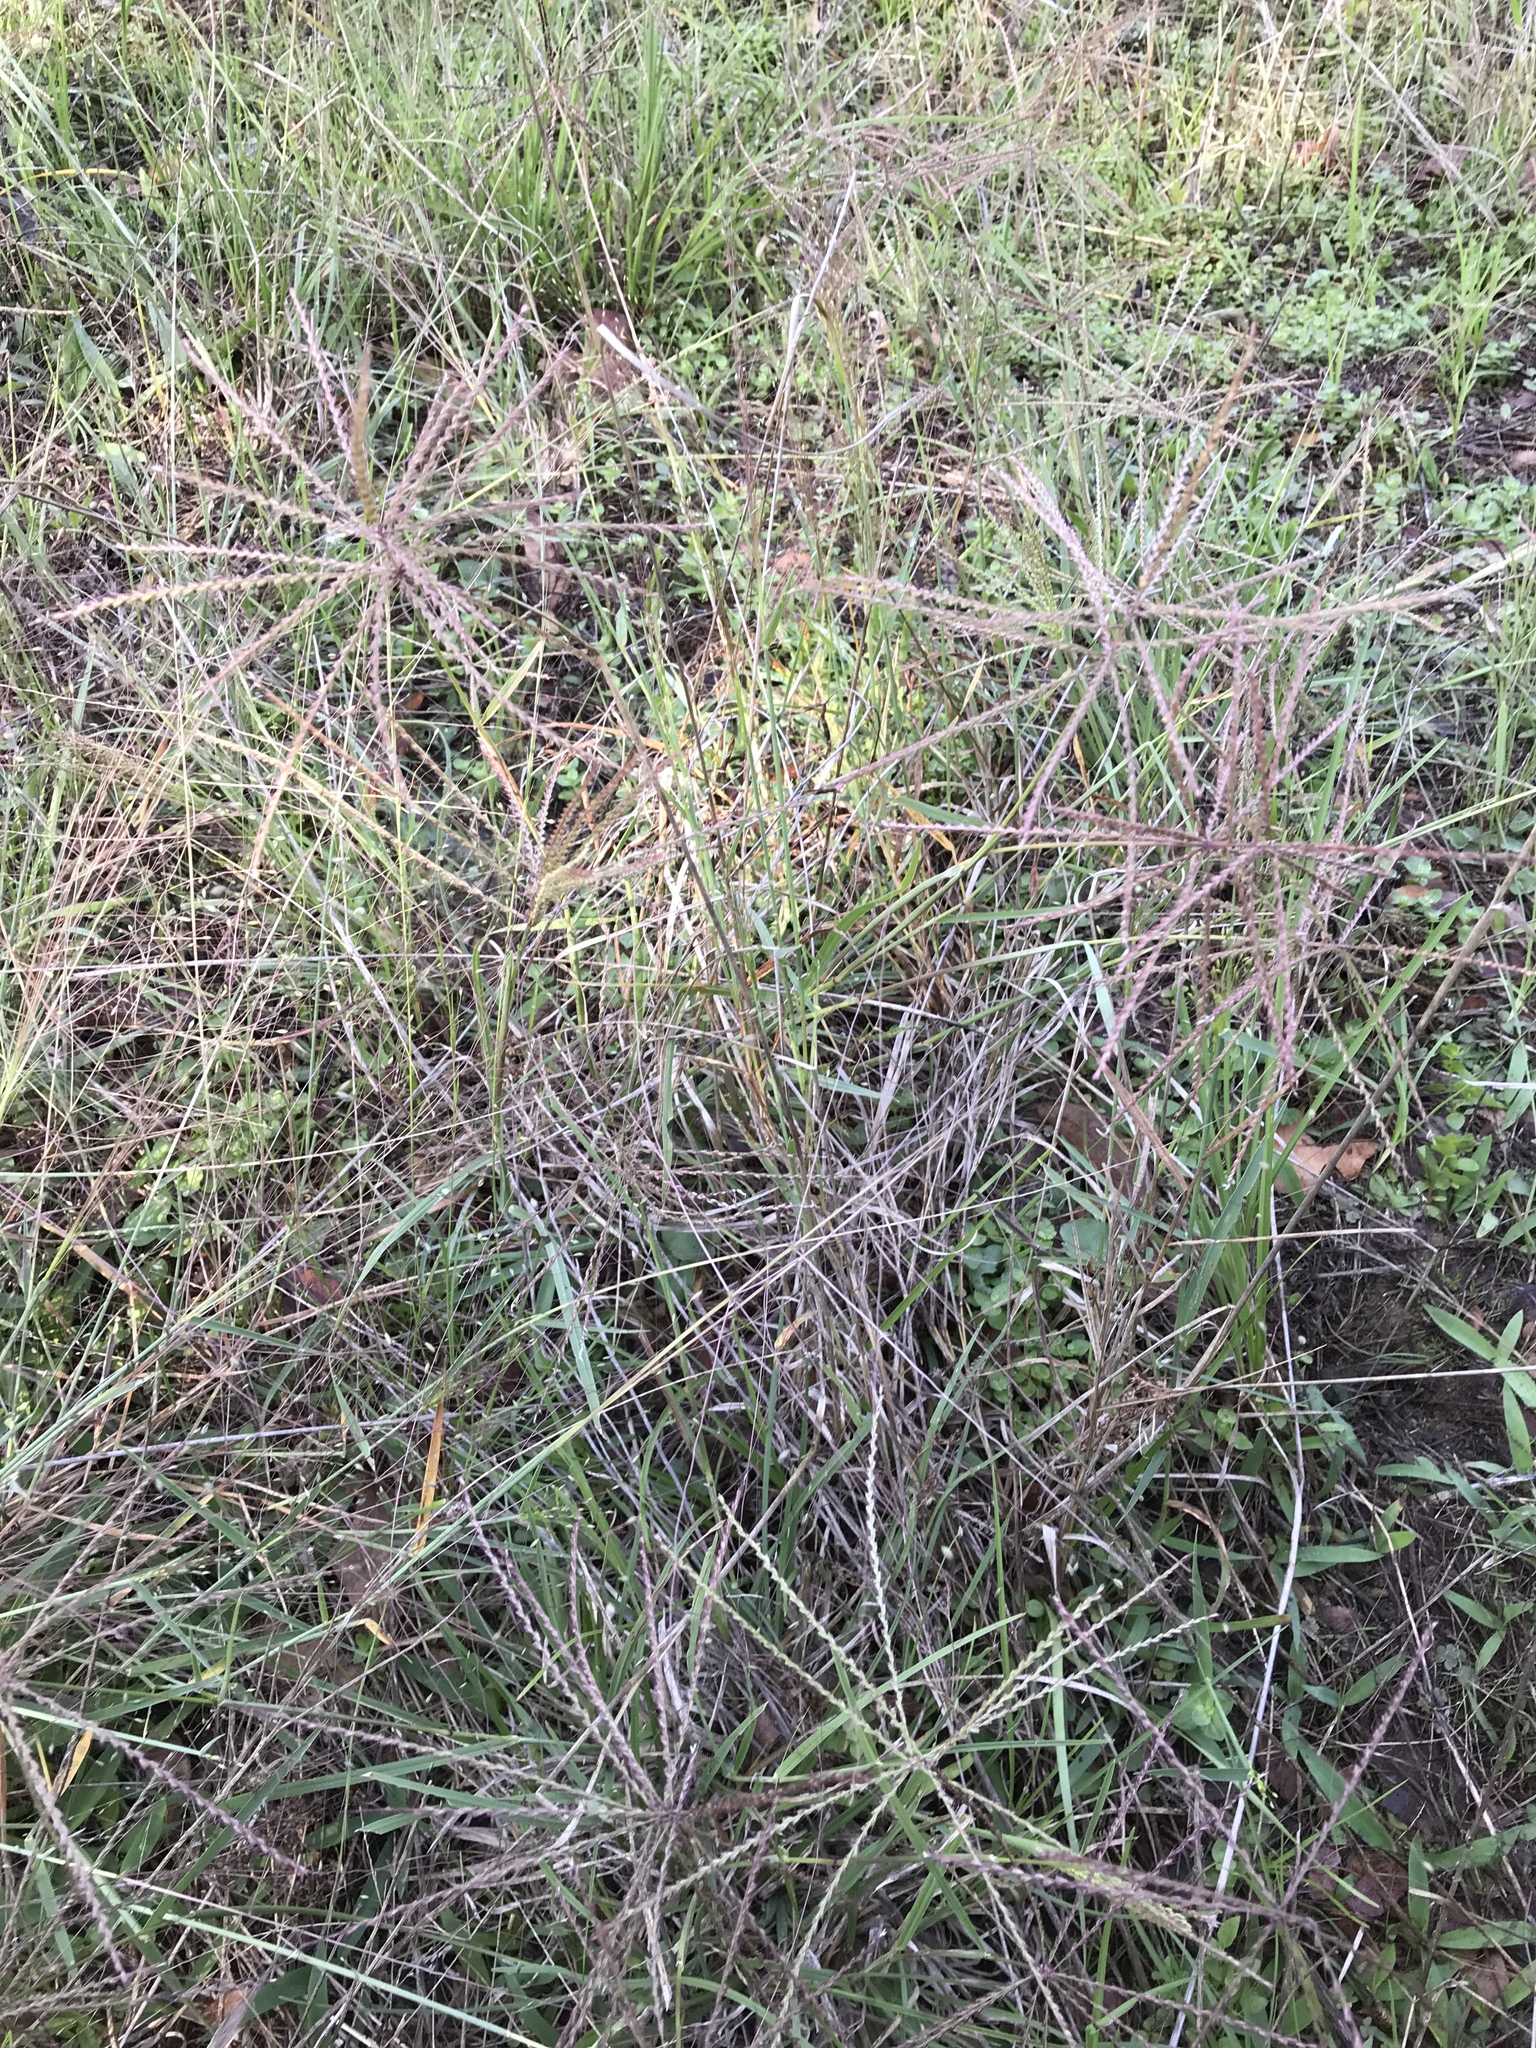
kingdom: Plantae
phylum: Tracheophyta
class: Liliopsida
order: Poales
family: Poaceae
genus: Chloris
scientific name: Chloris verticillata
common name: Tumble windmill grass
